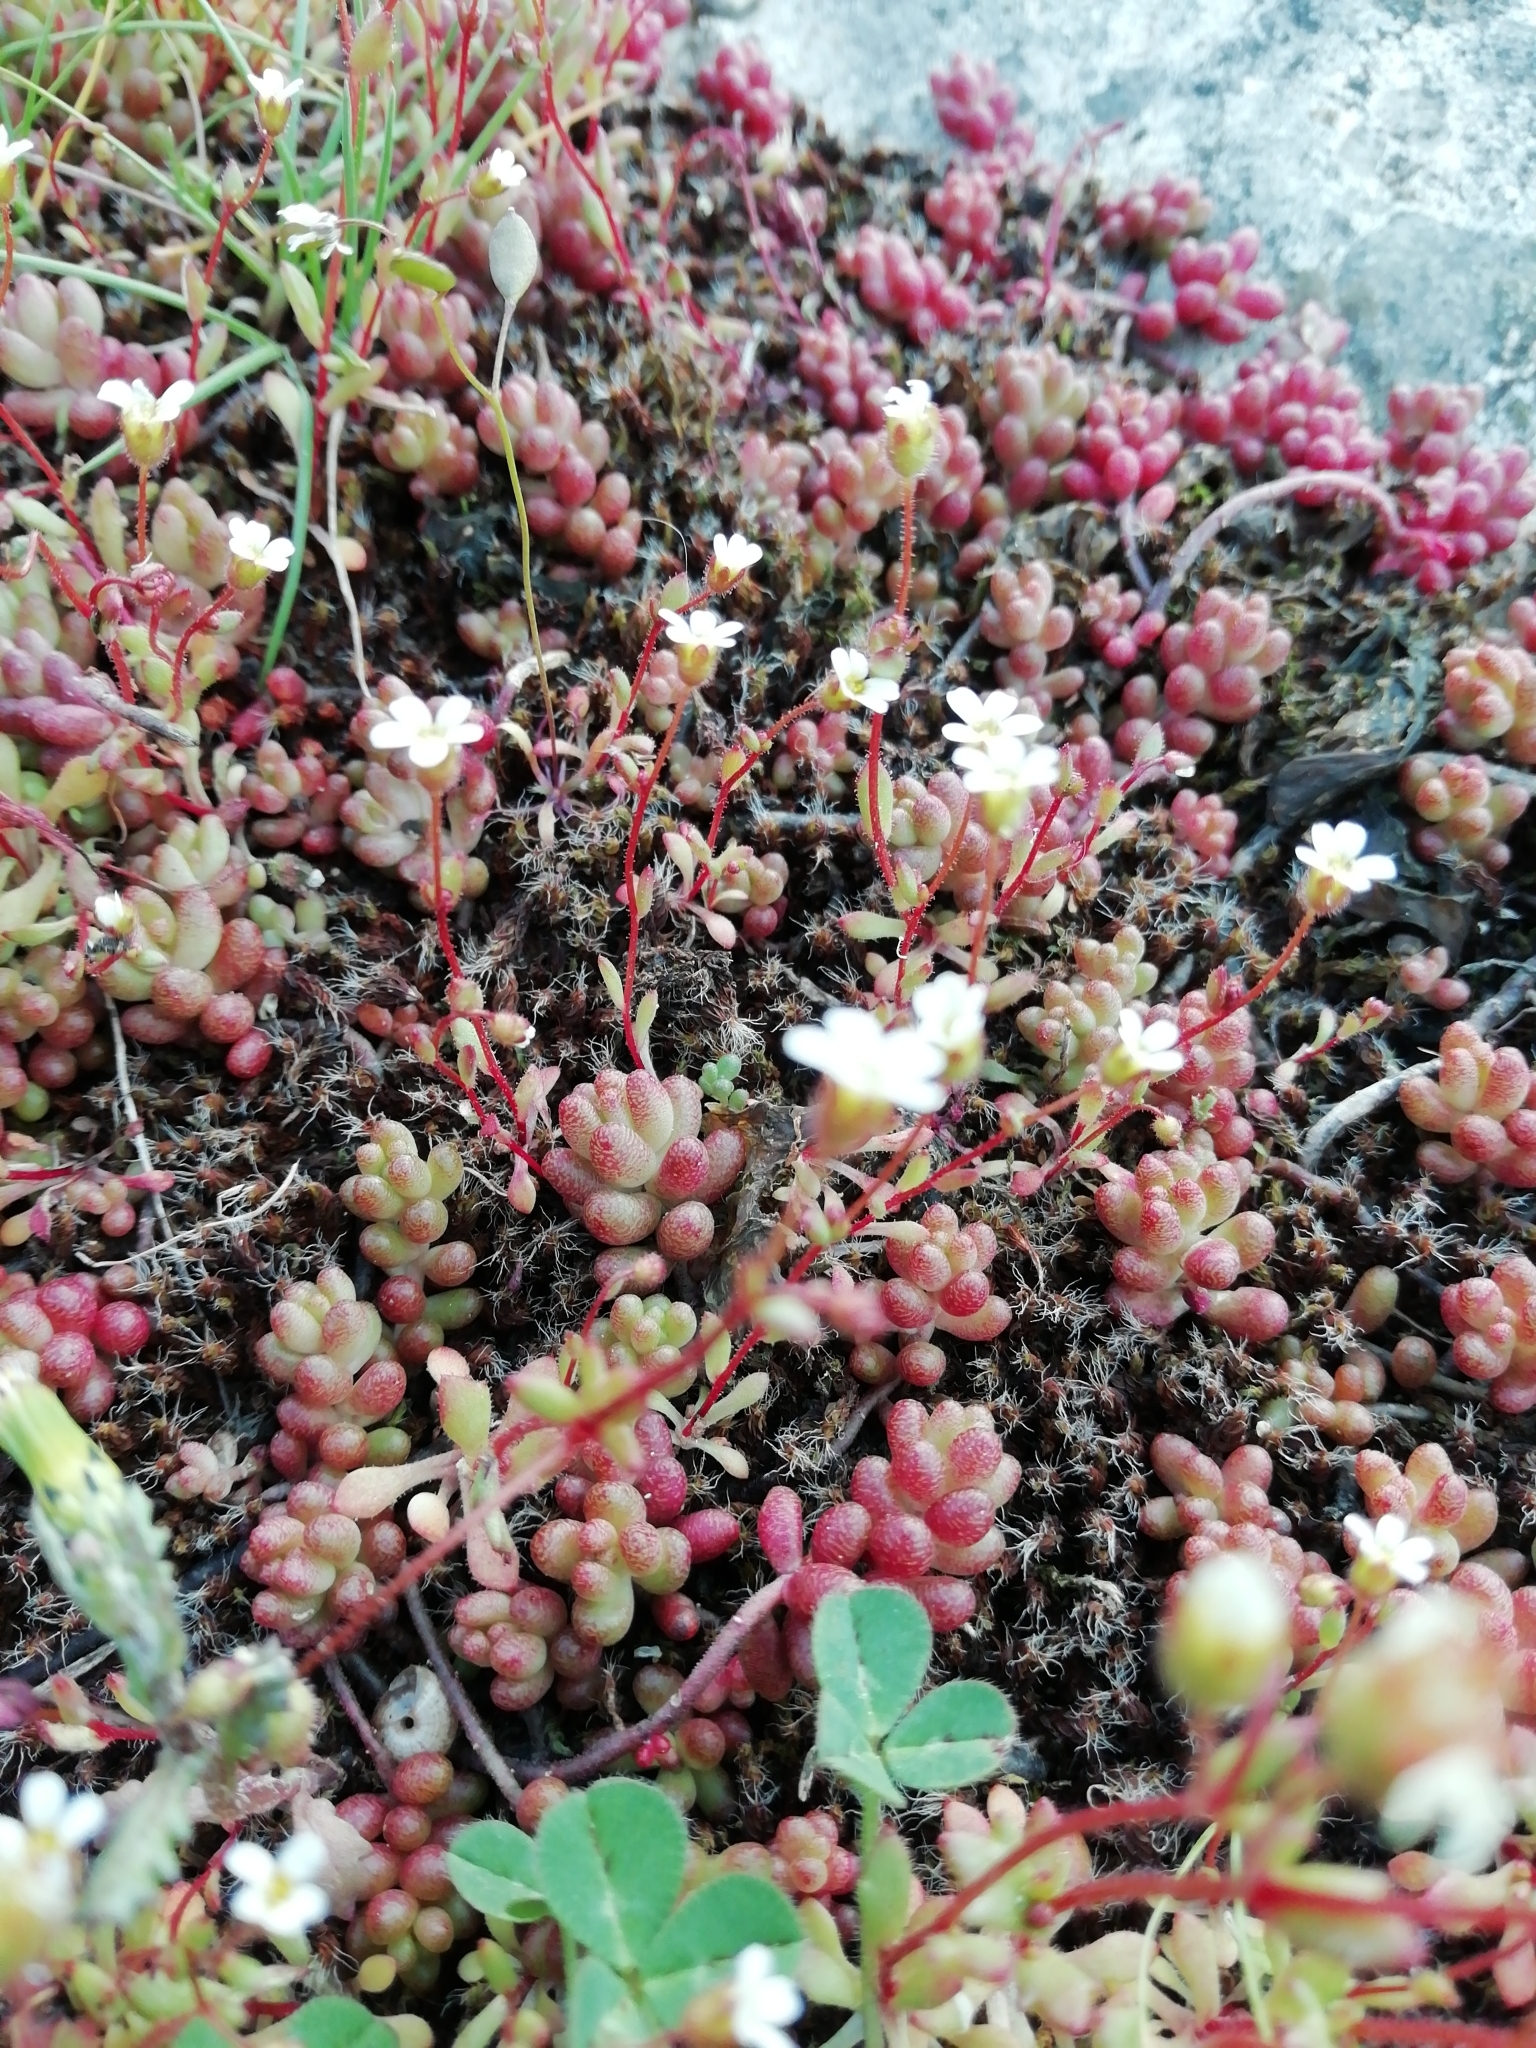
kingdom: Plantae
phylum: Tracheophyta
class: Magnoliopsida
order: Saxifragales
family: Crassulaceae
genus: Sedum
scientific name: Sedum album
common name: White stonecrop
